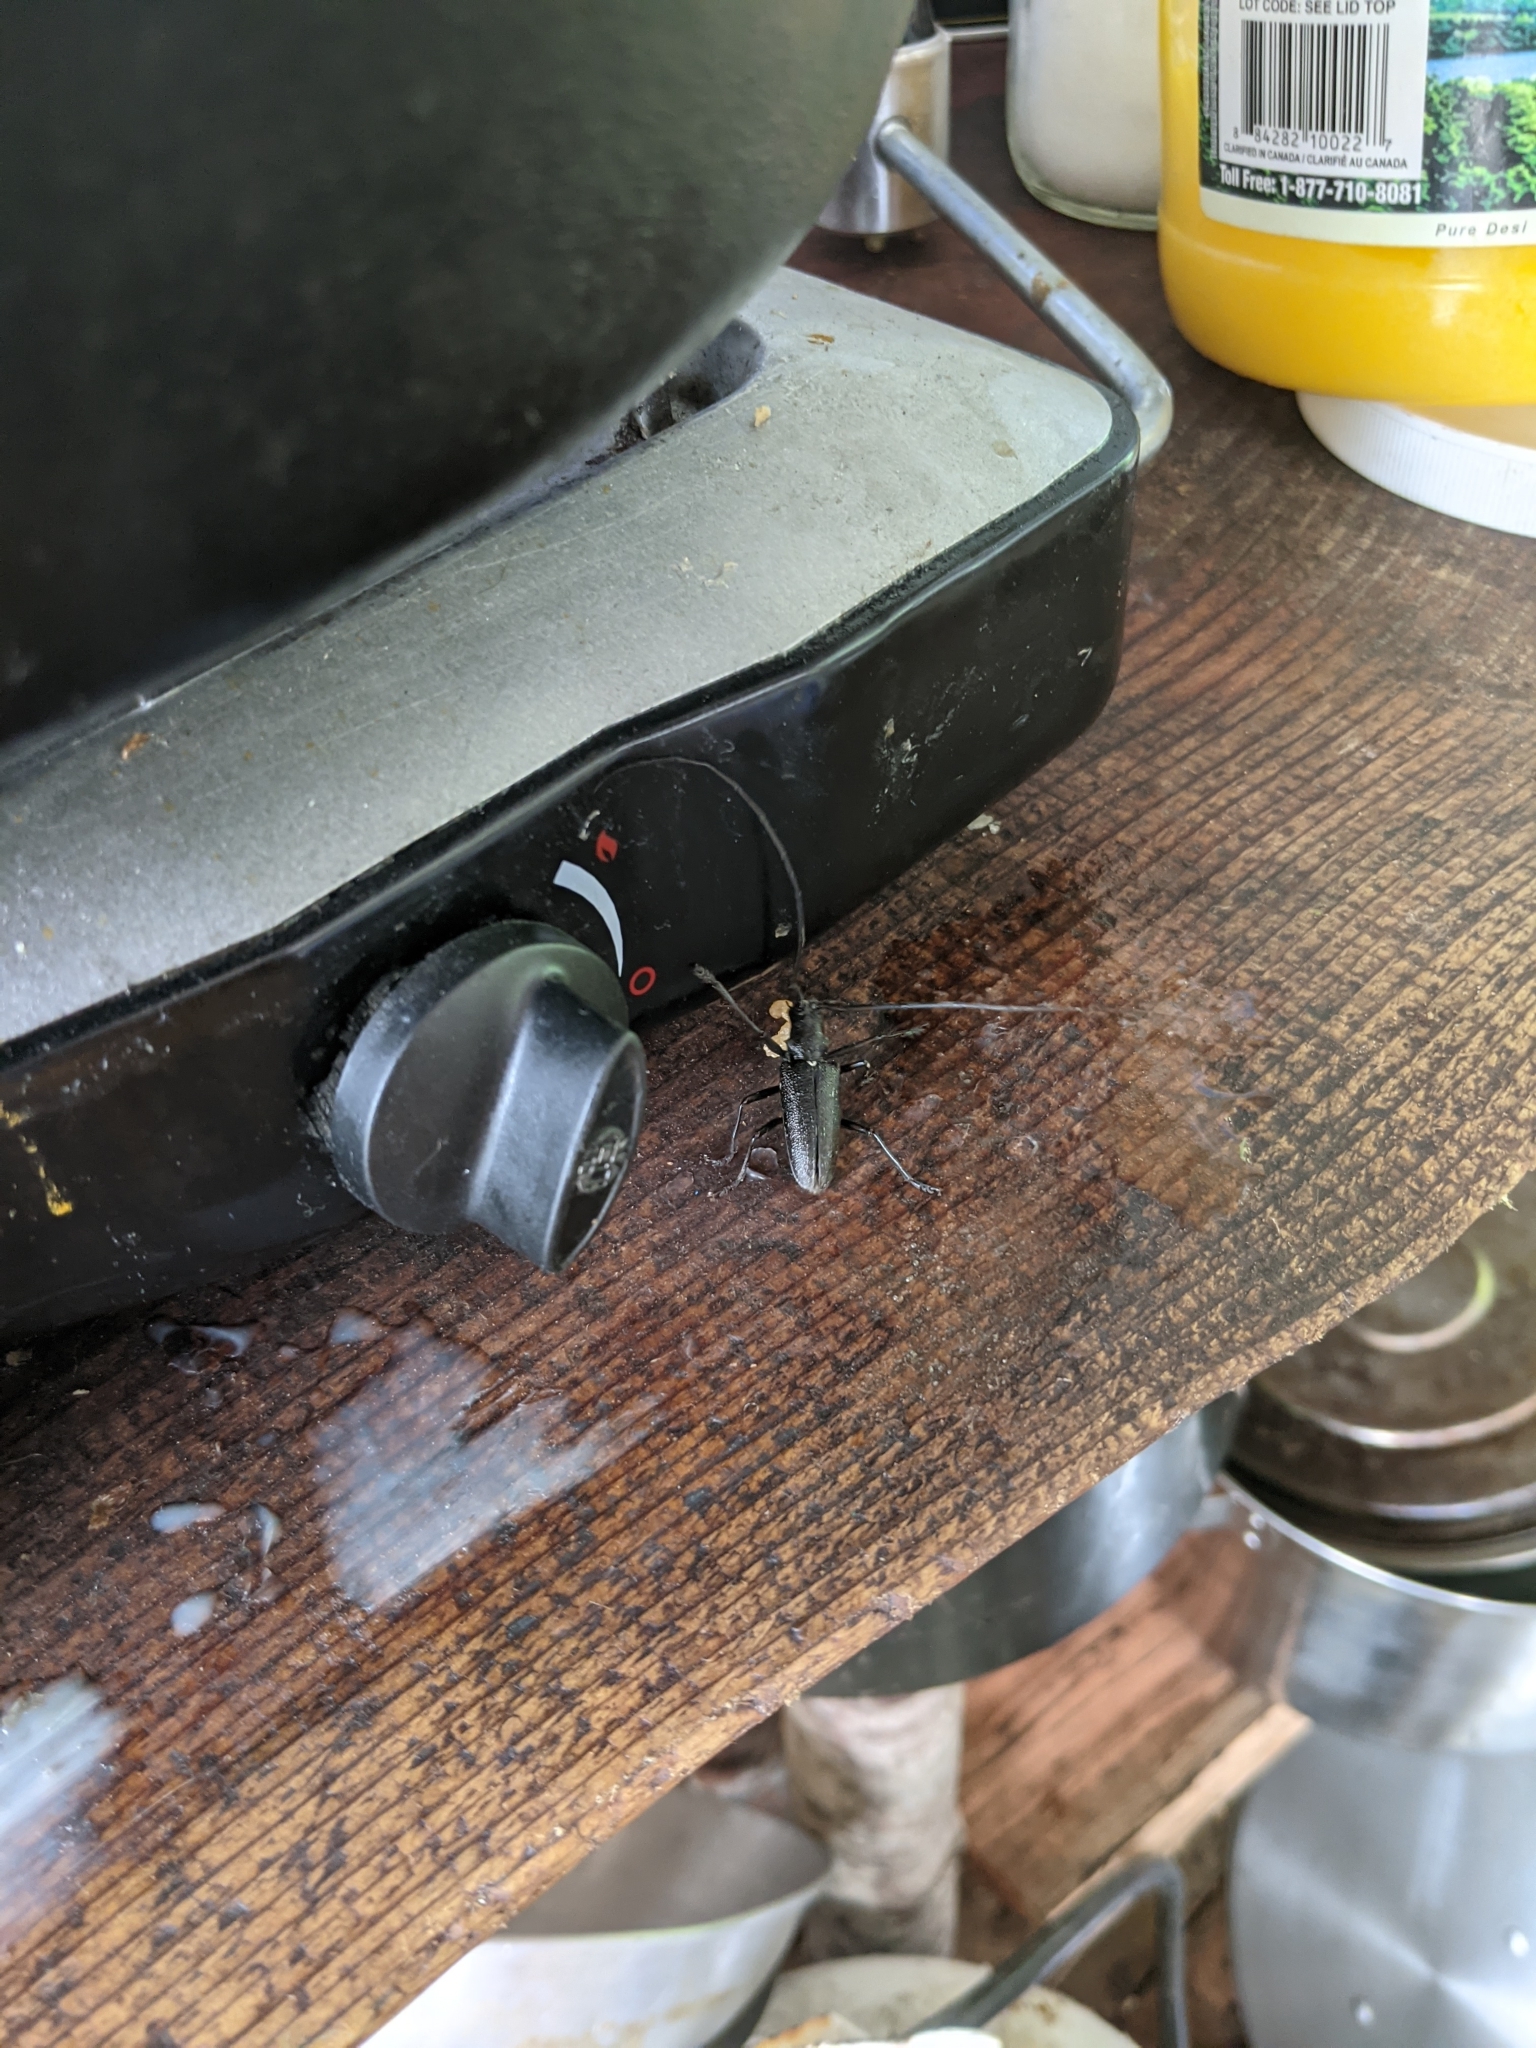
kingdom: Animalia
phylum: Arthropoda
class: Insecta
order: Coleoptera
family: Cerambycidae
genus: Monochamus
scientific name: Monochamus scutellatus
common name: White-spotted sawyer beetle
